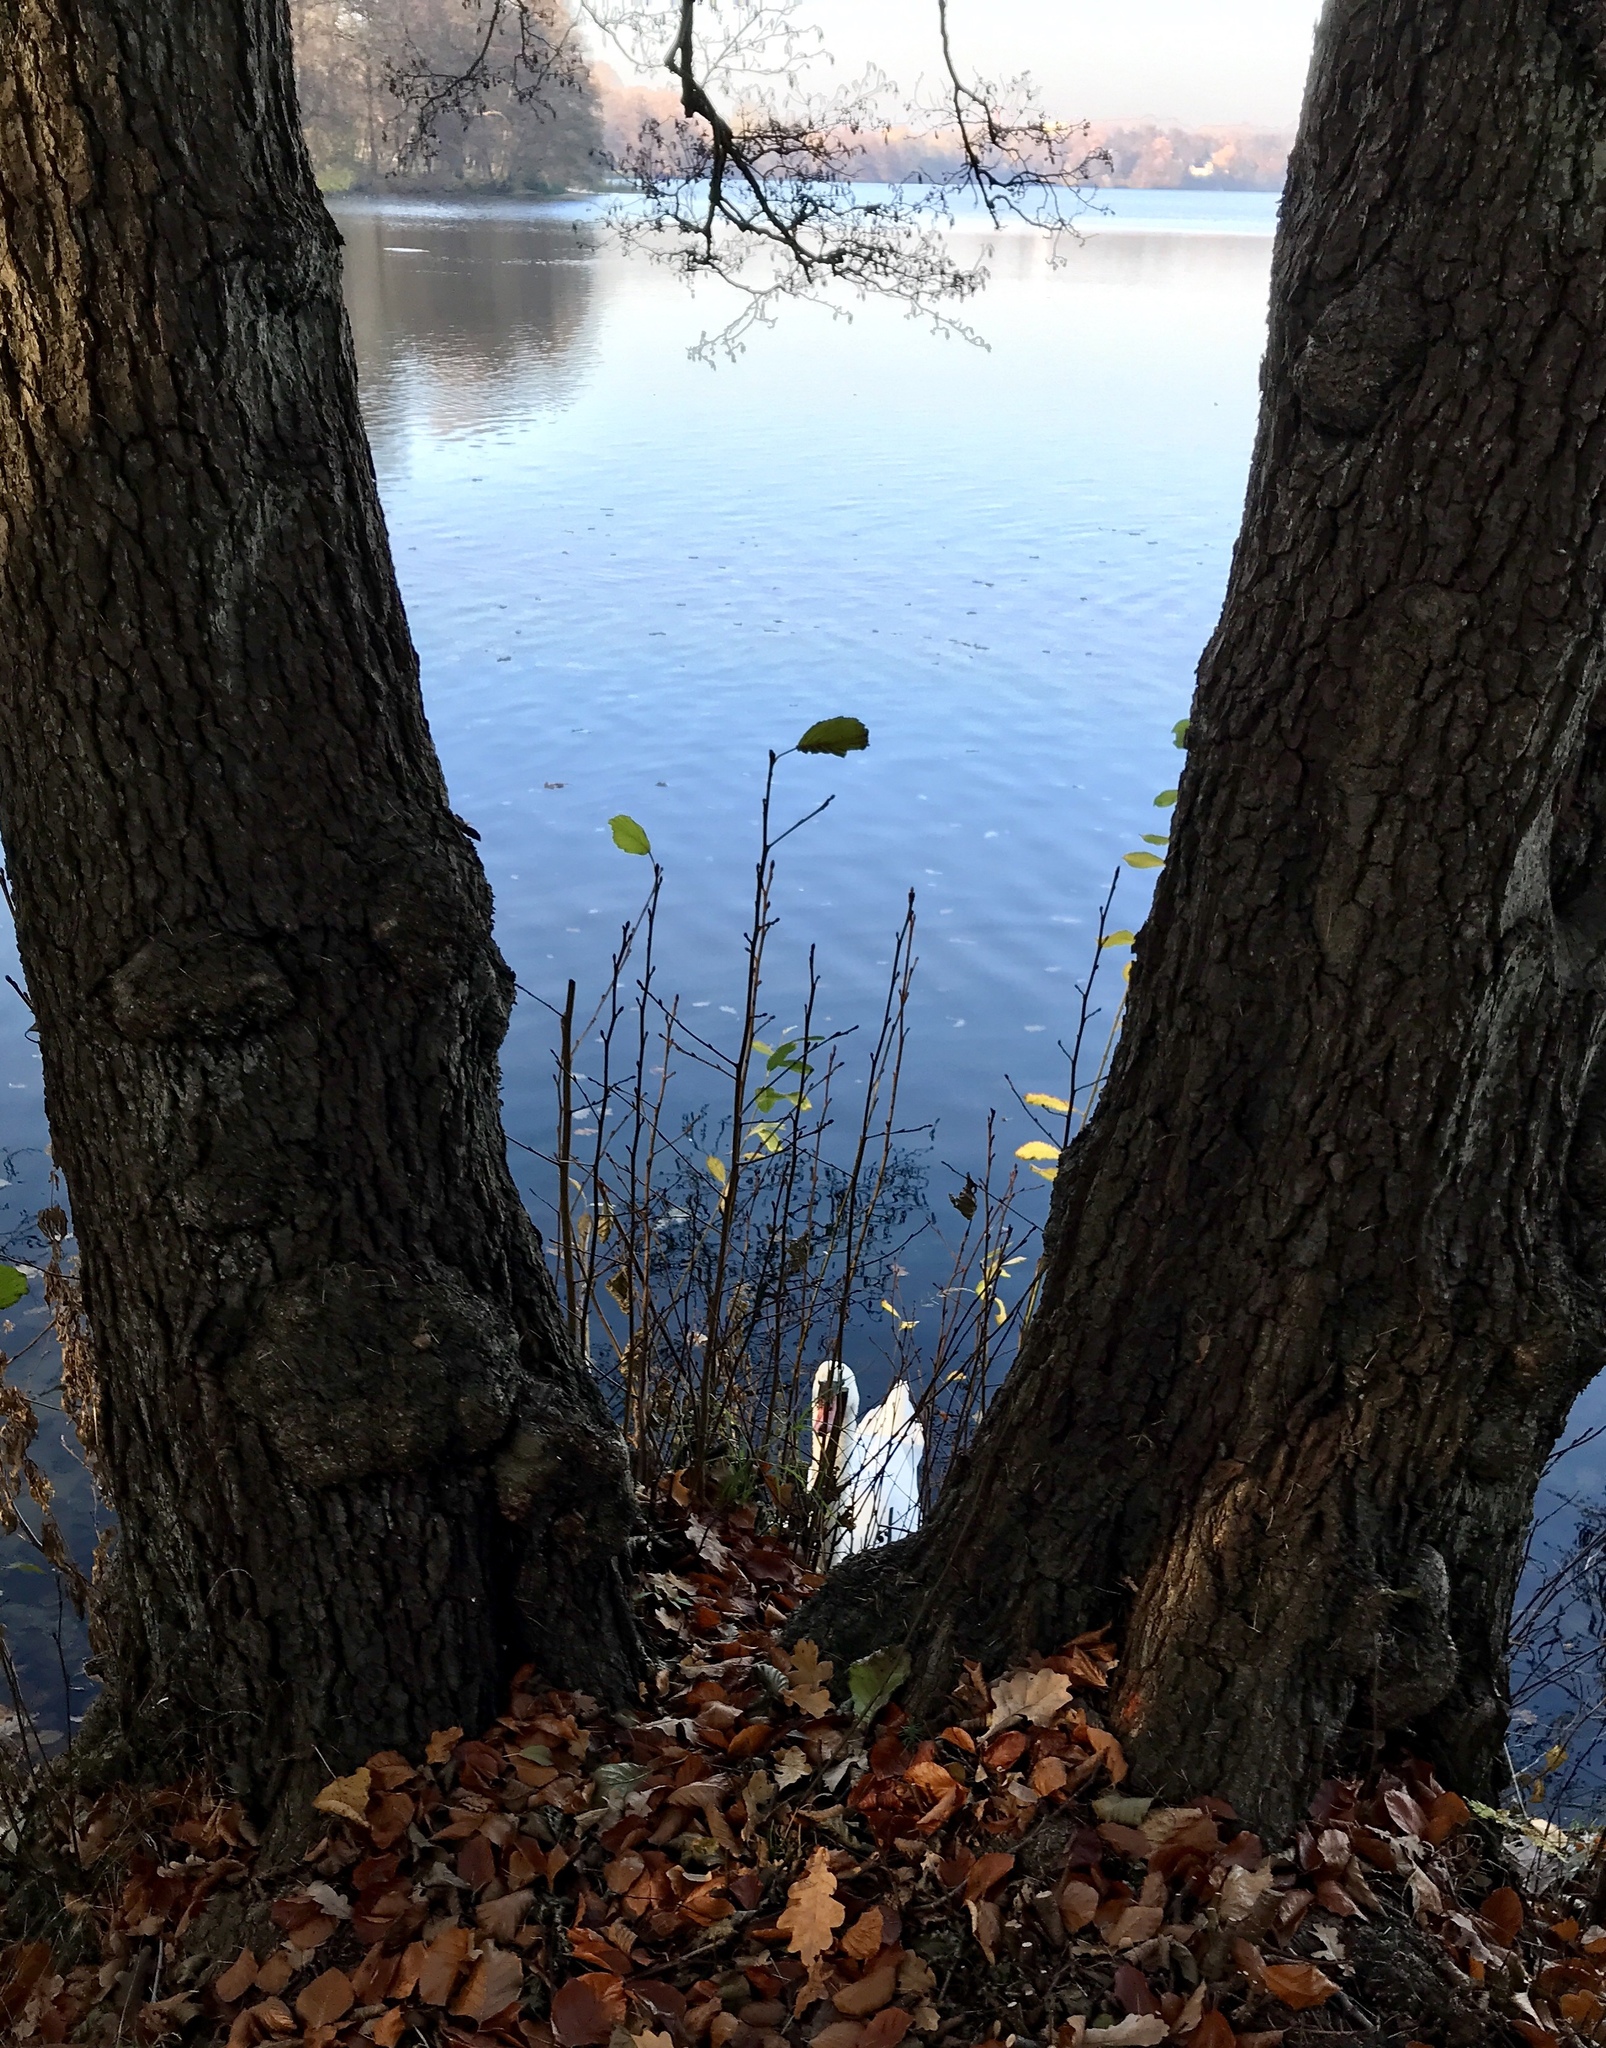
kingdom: Animalia
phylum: Chordata
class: Aves
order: Anseriformes
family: Anatidae
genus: Cygnus
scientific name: Cygnus olor
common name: Mute swan
